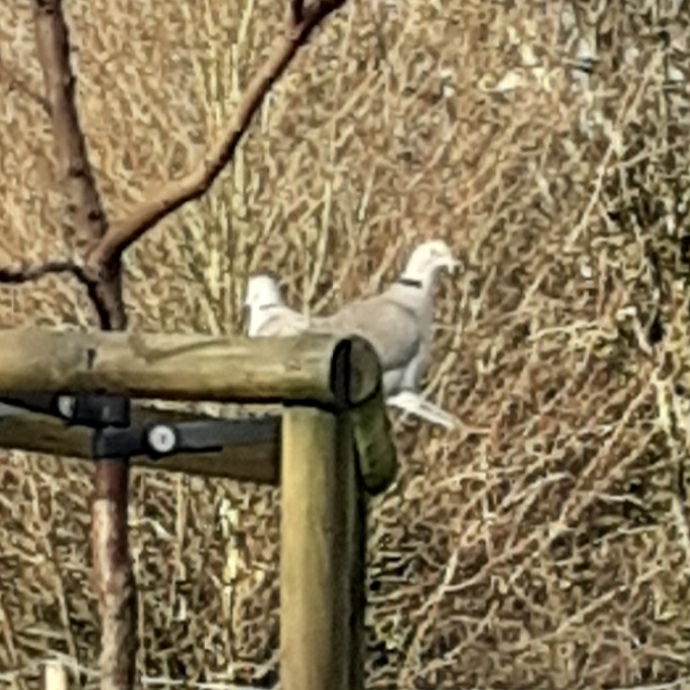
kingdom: Animalia
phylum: Chordata
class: Aves
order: Columbiformes
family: Columbidae
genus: Streptopelia
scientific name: Streptopelia decaocto
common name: Eurasian collared dove
